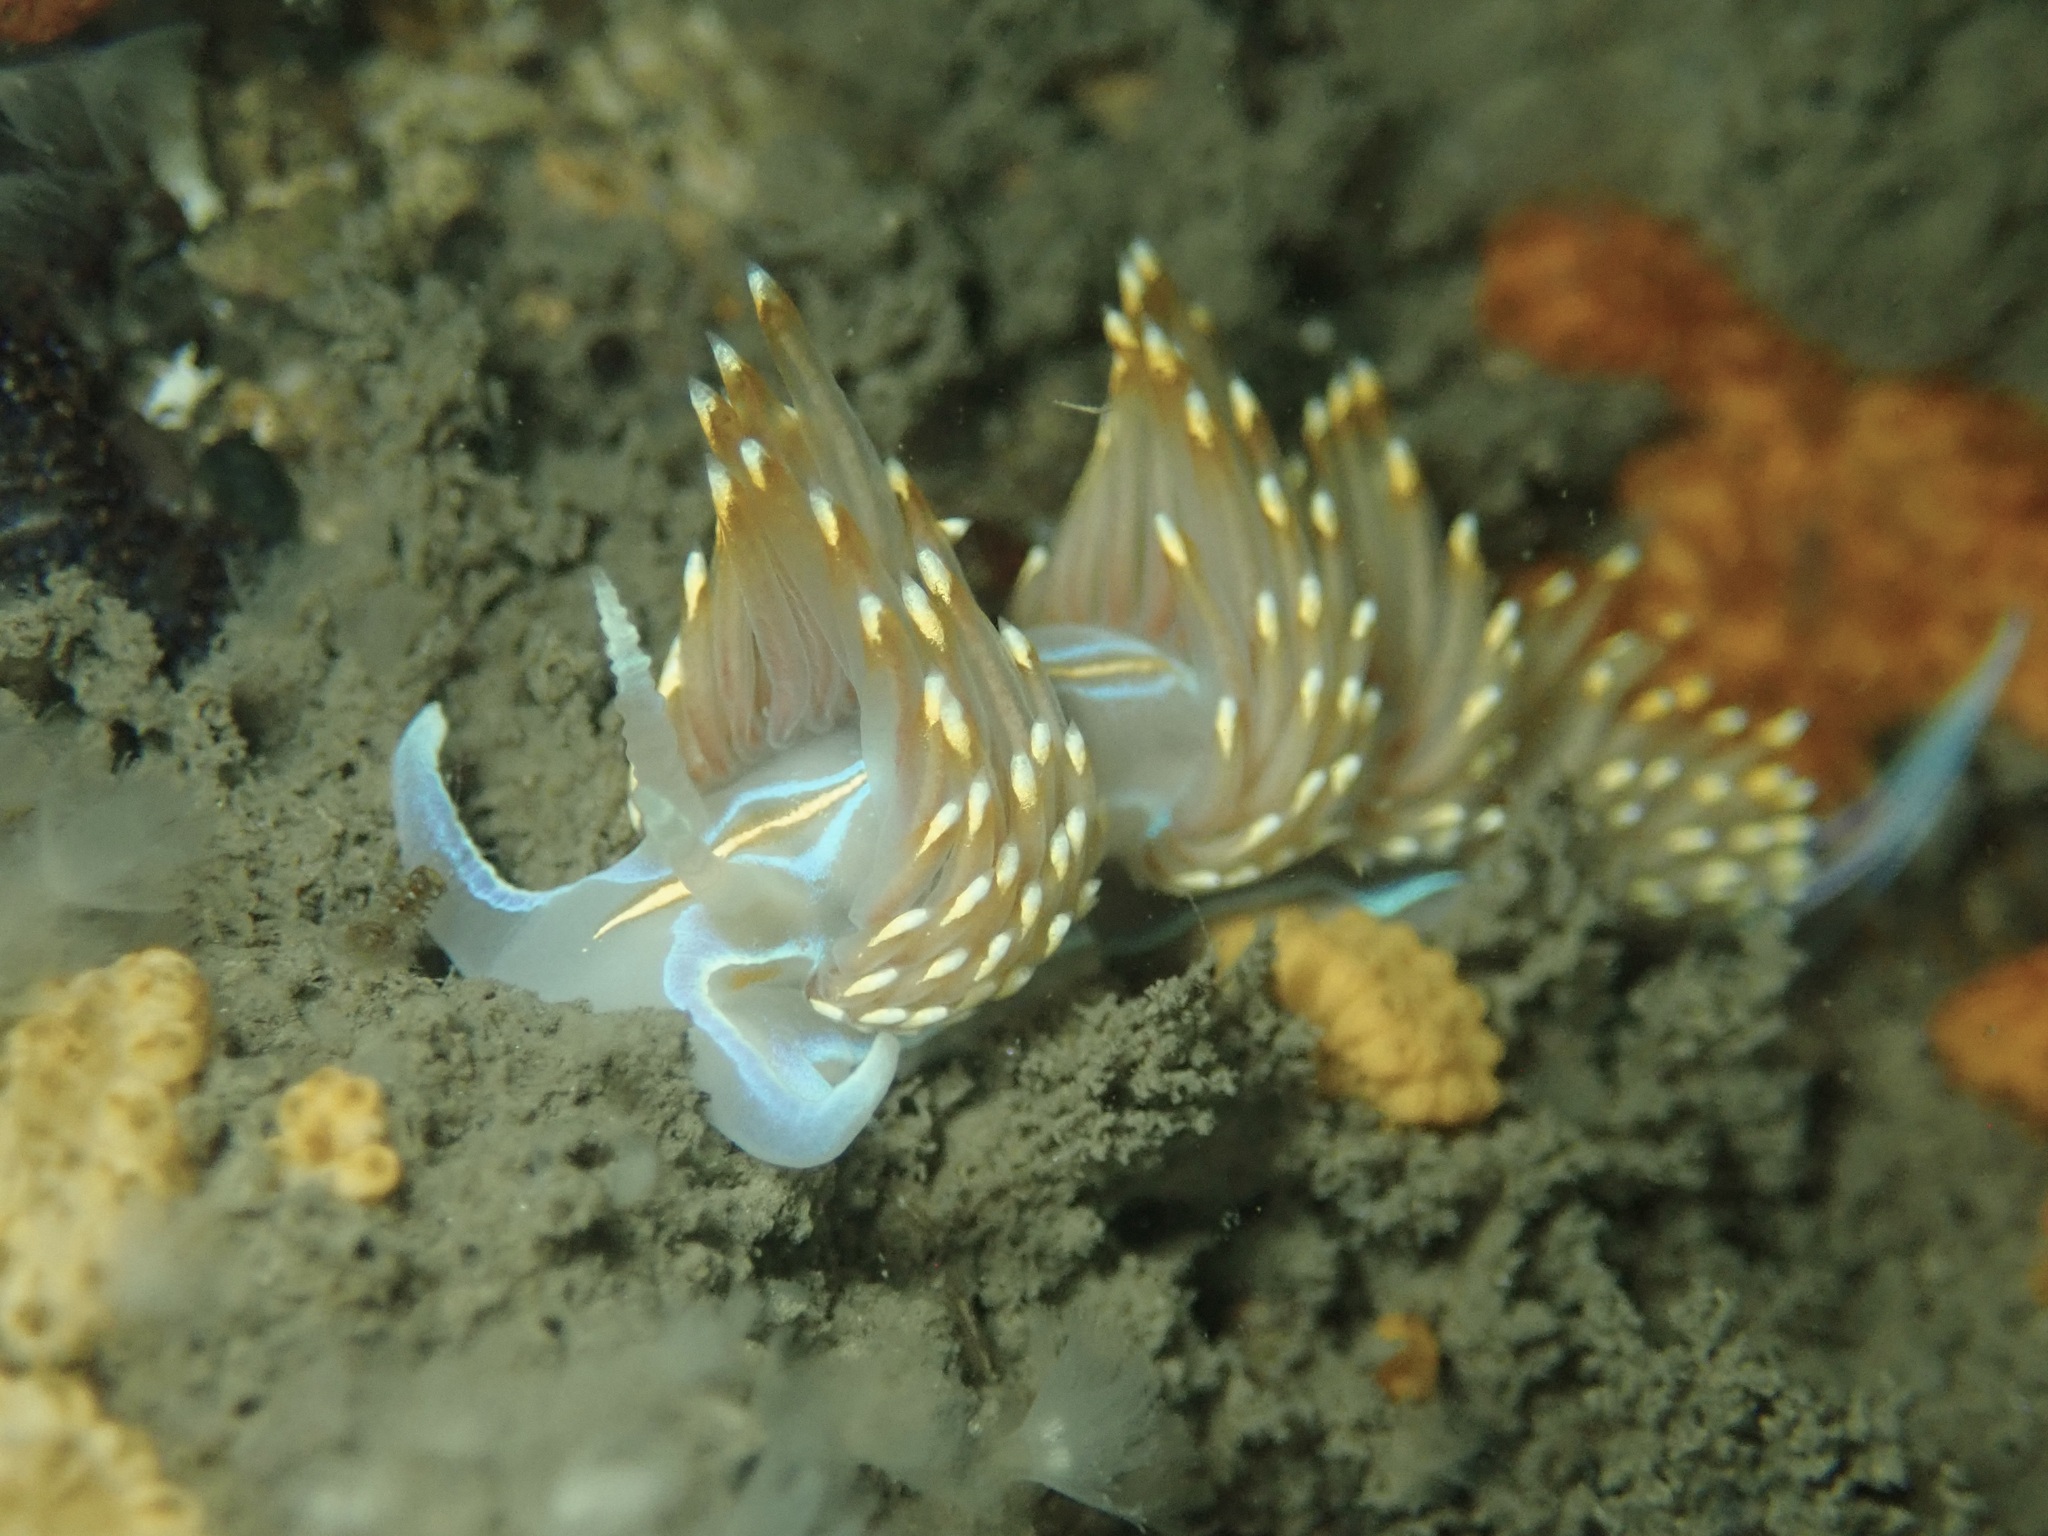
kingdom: Animalia
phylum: Mollusca
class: Gastropoda
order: Nudibranchia
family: Myrrhinidae
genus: Hermissenda
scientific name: Hermissenda opalescens
